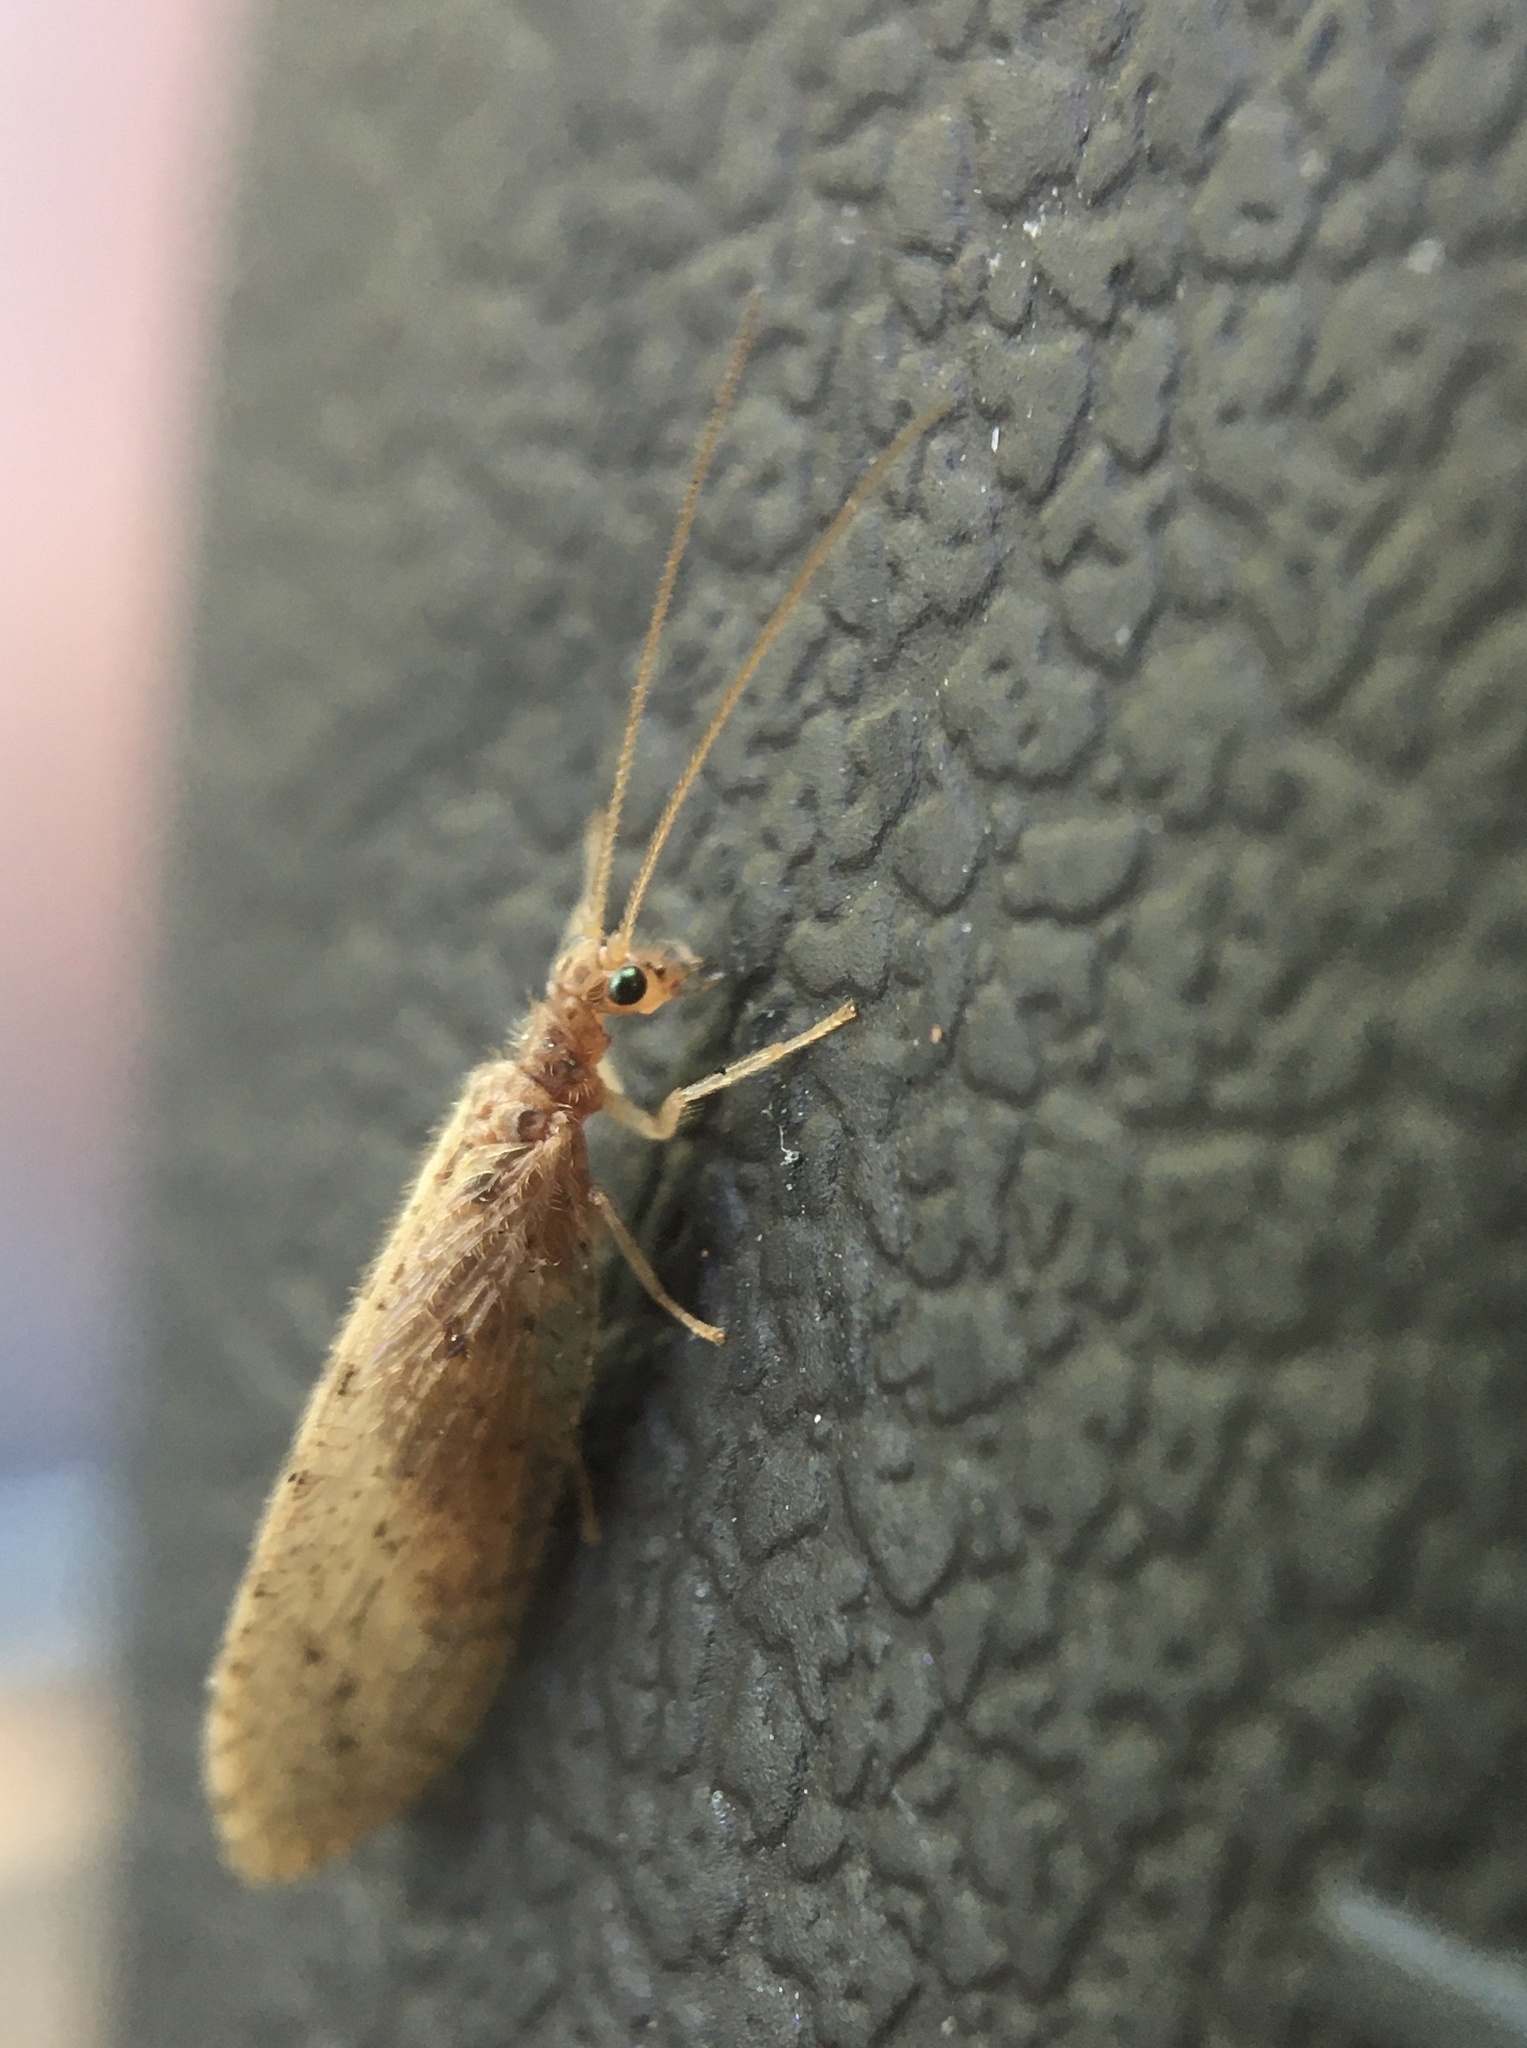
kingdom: Animalia
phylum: Arthropoda
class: Insecta
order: Neuroptera
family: Hemerobiidae
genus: Micromus
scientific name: Micromus subanticus
